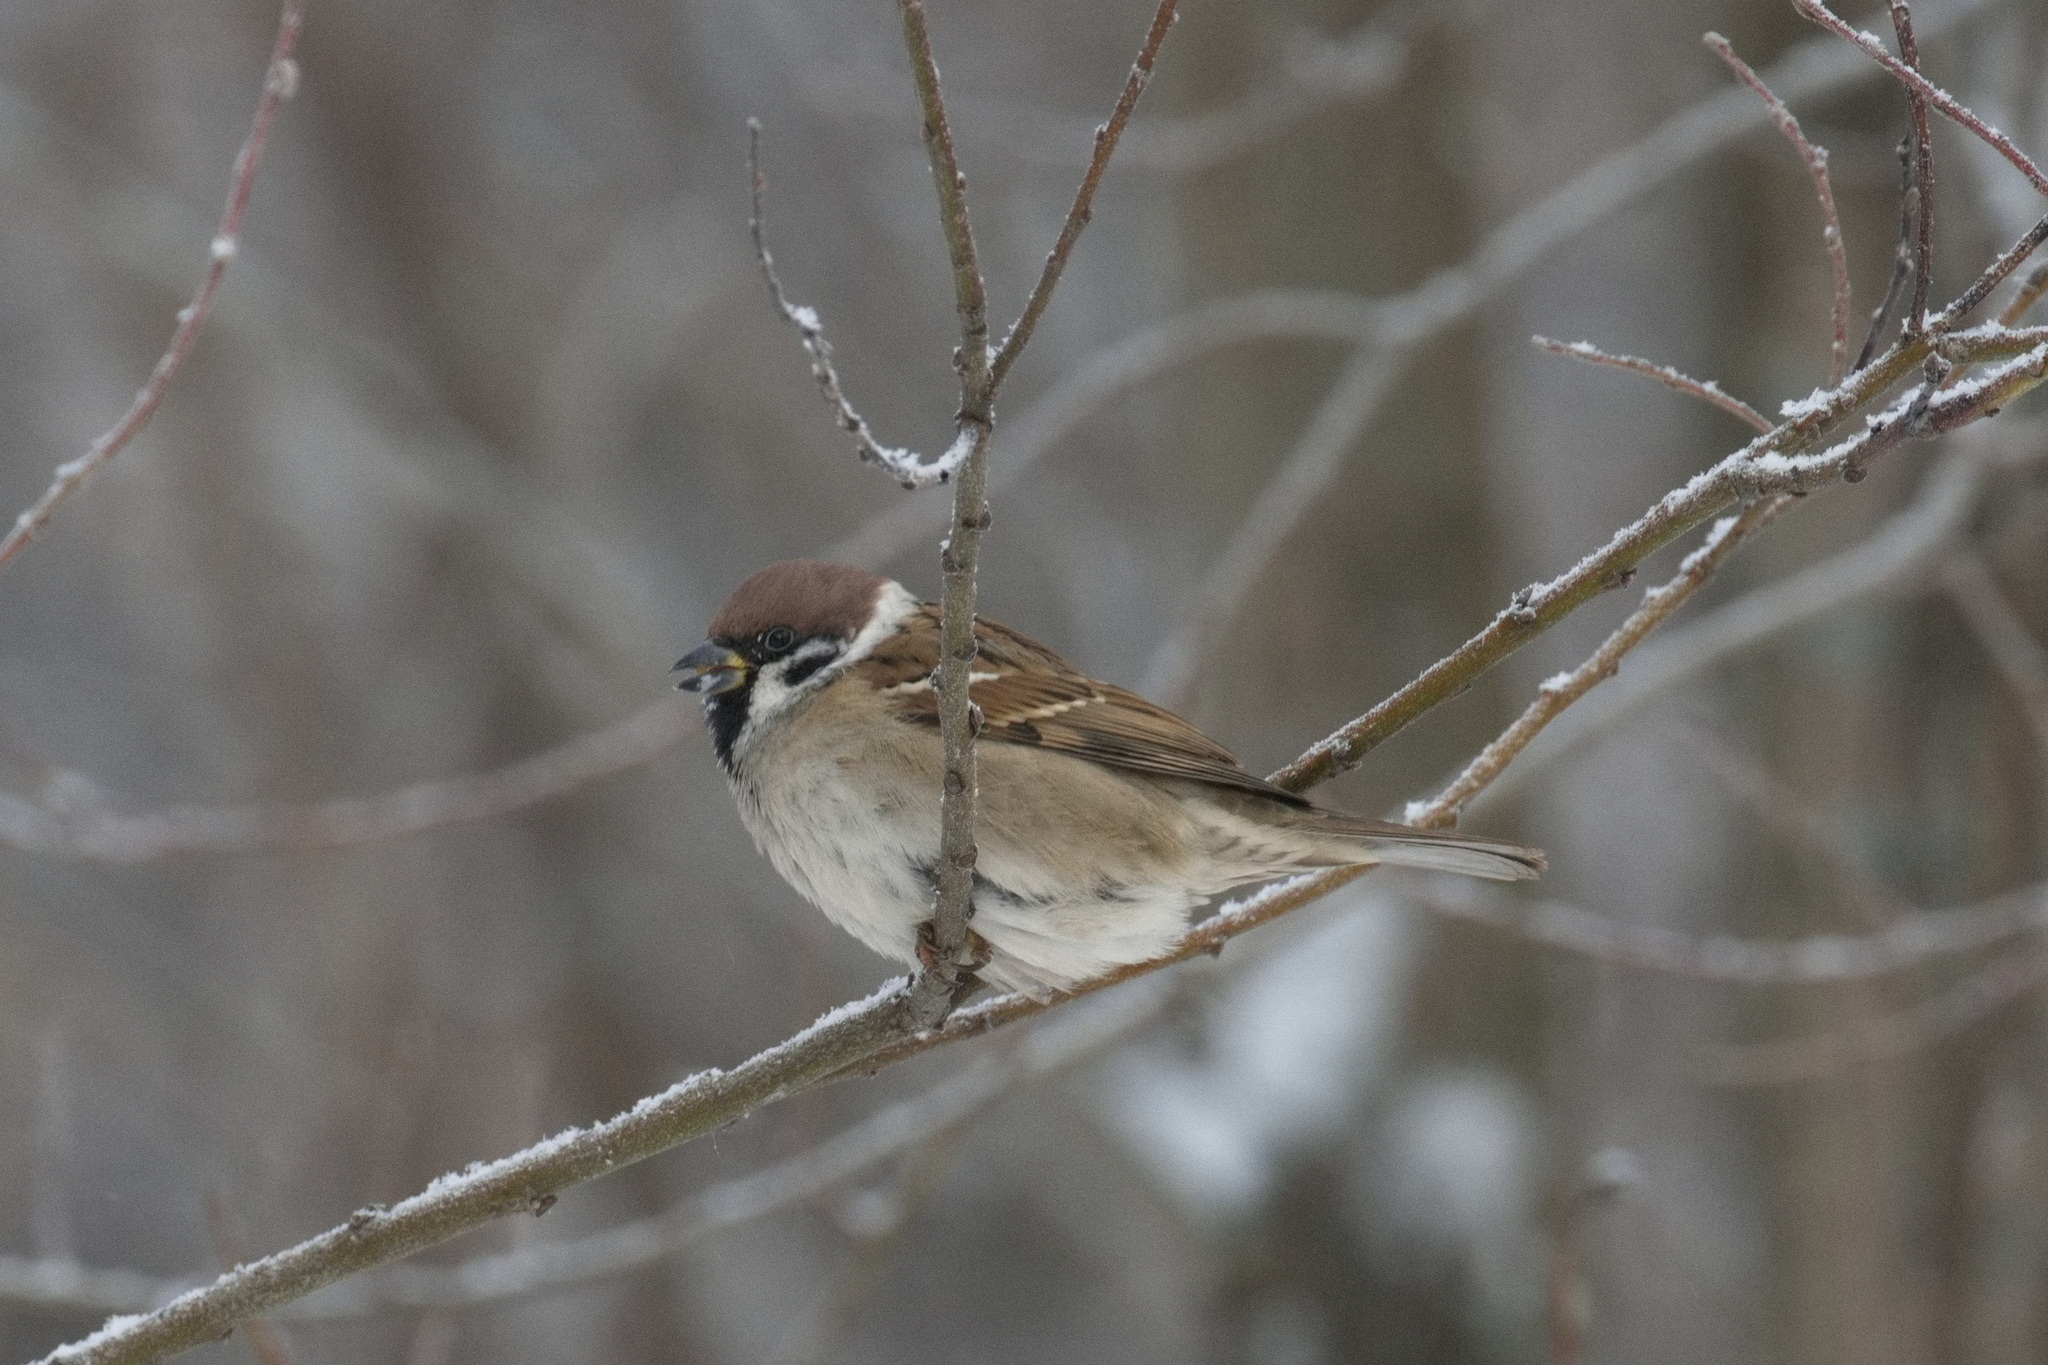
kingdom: Animalia
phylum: Chordata
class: Aves
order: Passeriformes
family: Passeridae
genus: Passer
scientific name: Passer montanus
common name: Eurasian tree sparrow
